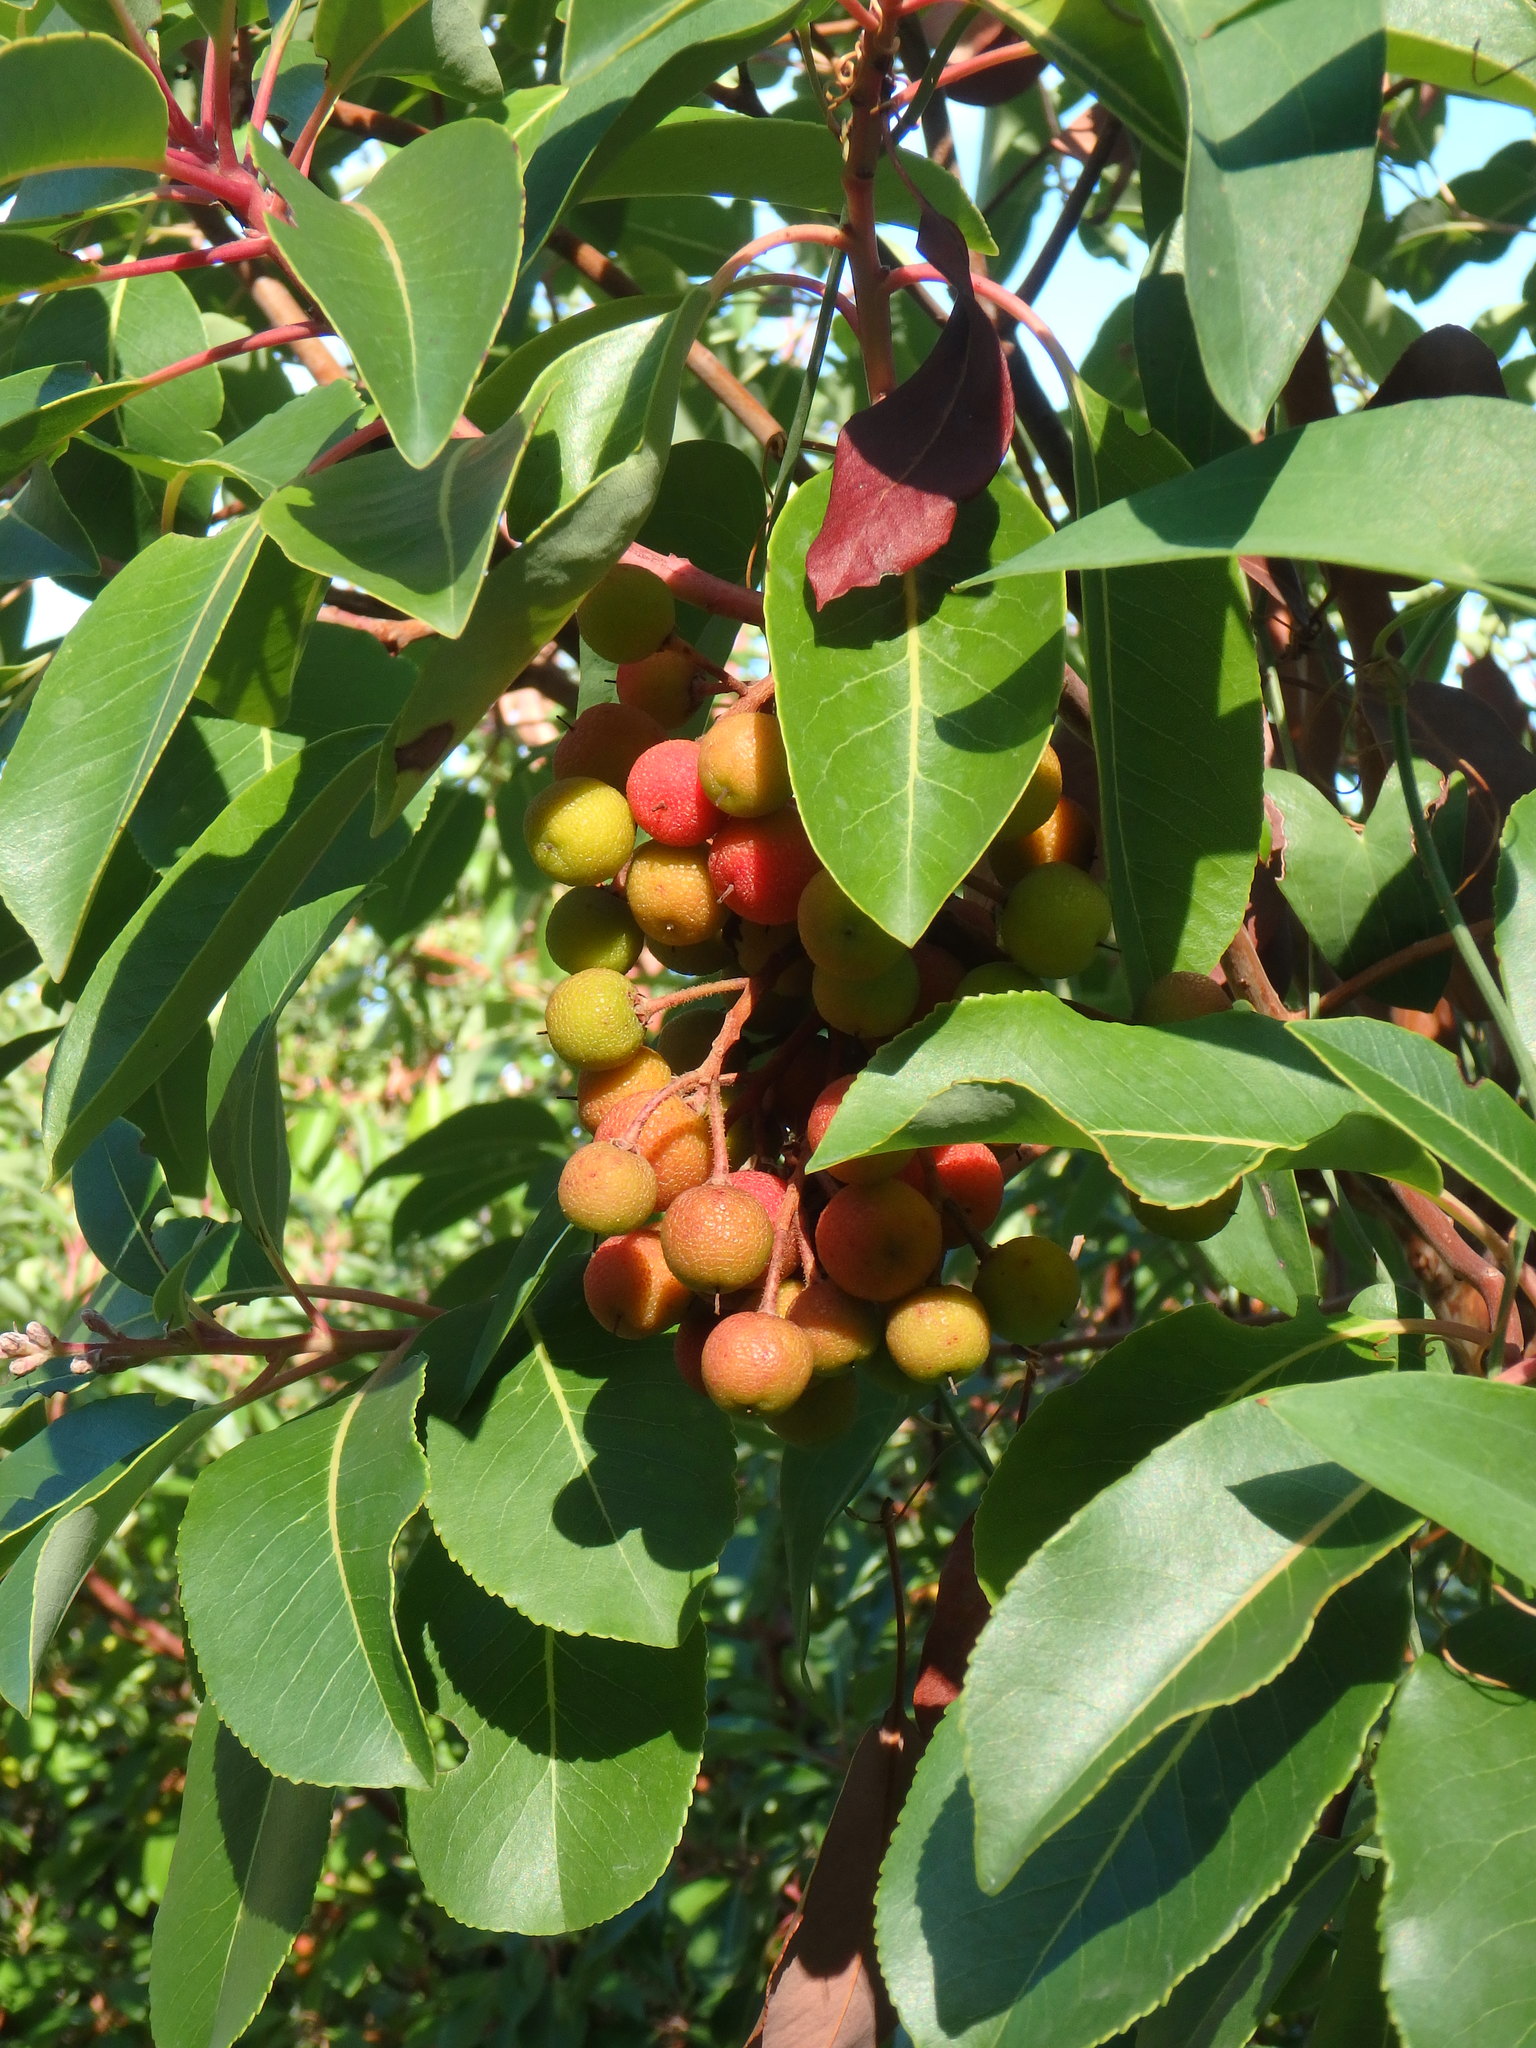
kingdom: Plantae
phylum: Tracheophyta
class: Magnoliopsida
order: Ericales
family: Ericaceae
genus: Arbutus
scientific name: Arbutus andrachne
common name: Greek strawberry tree
